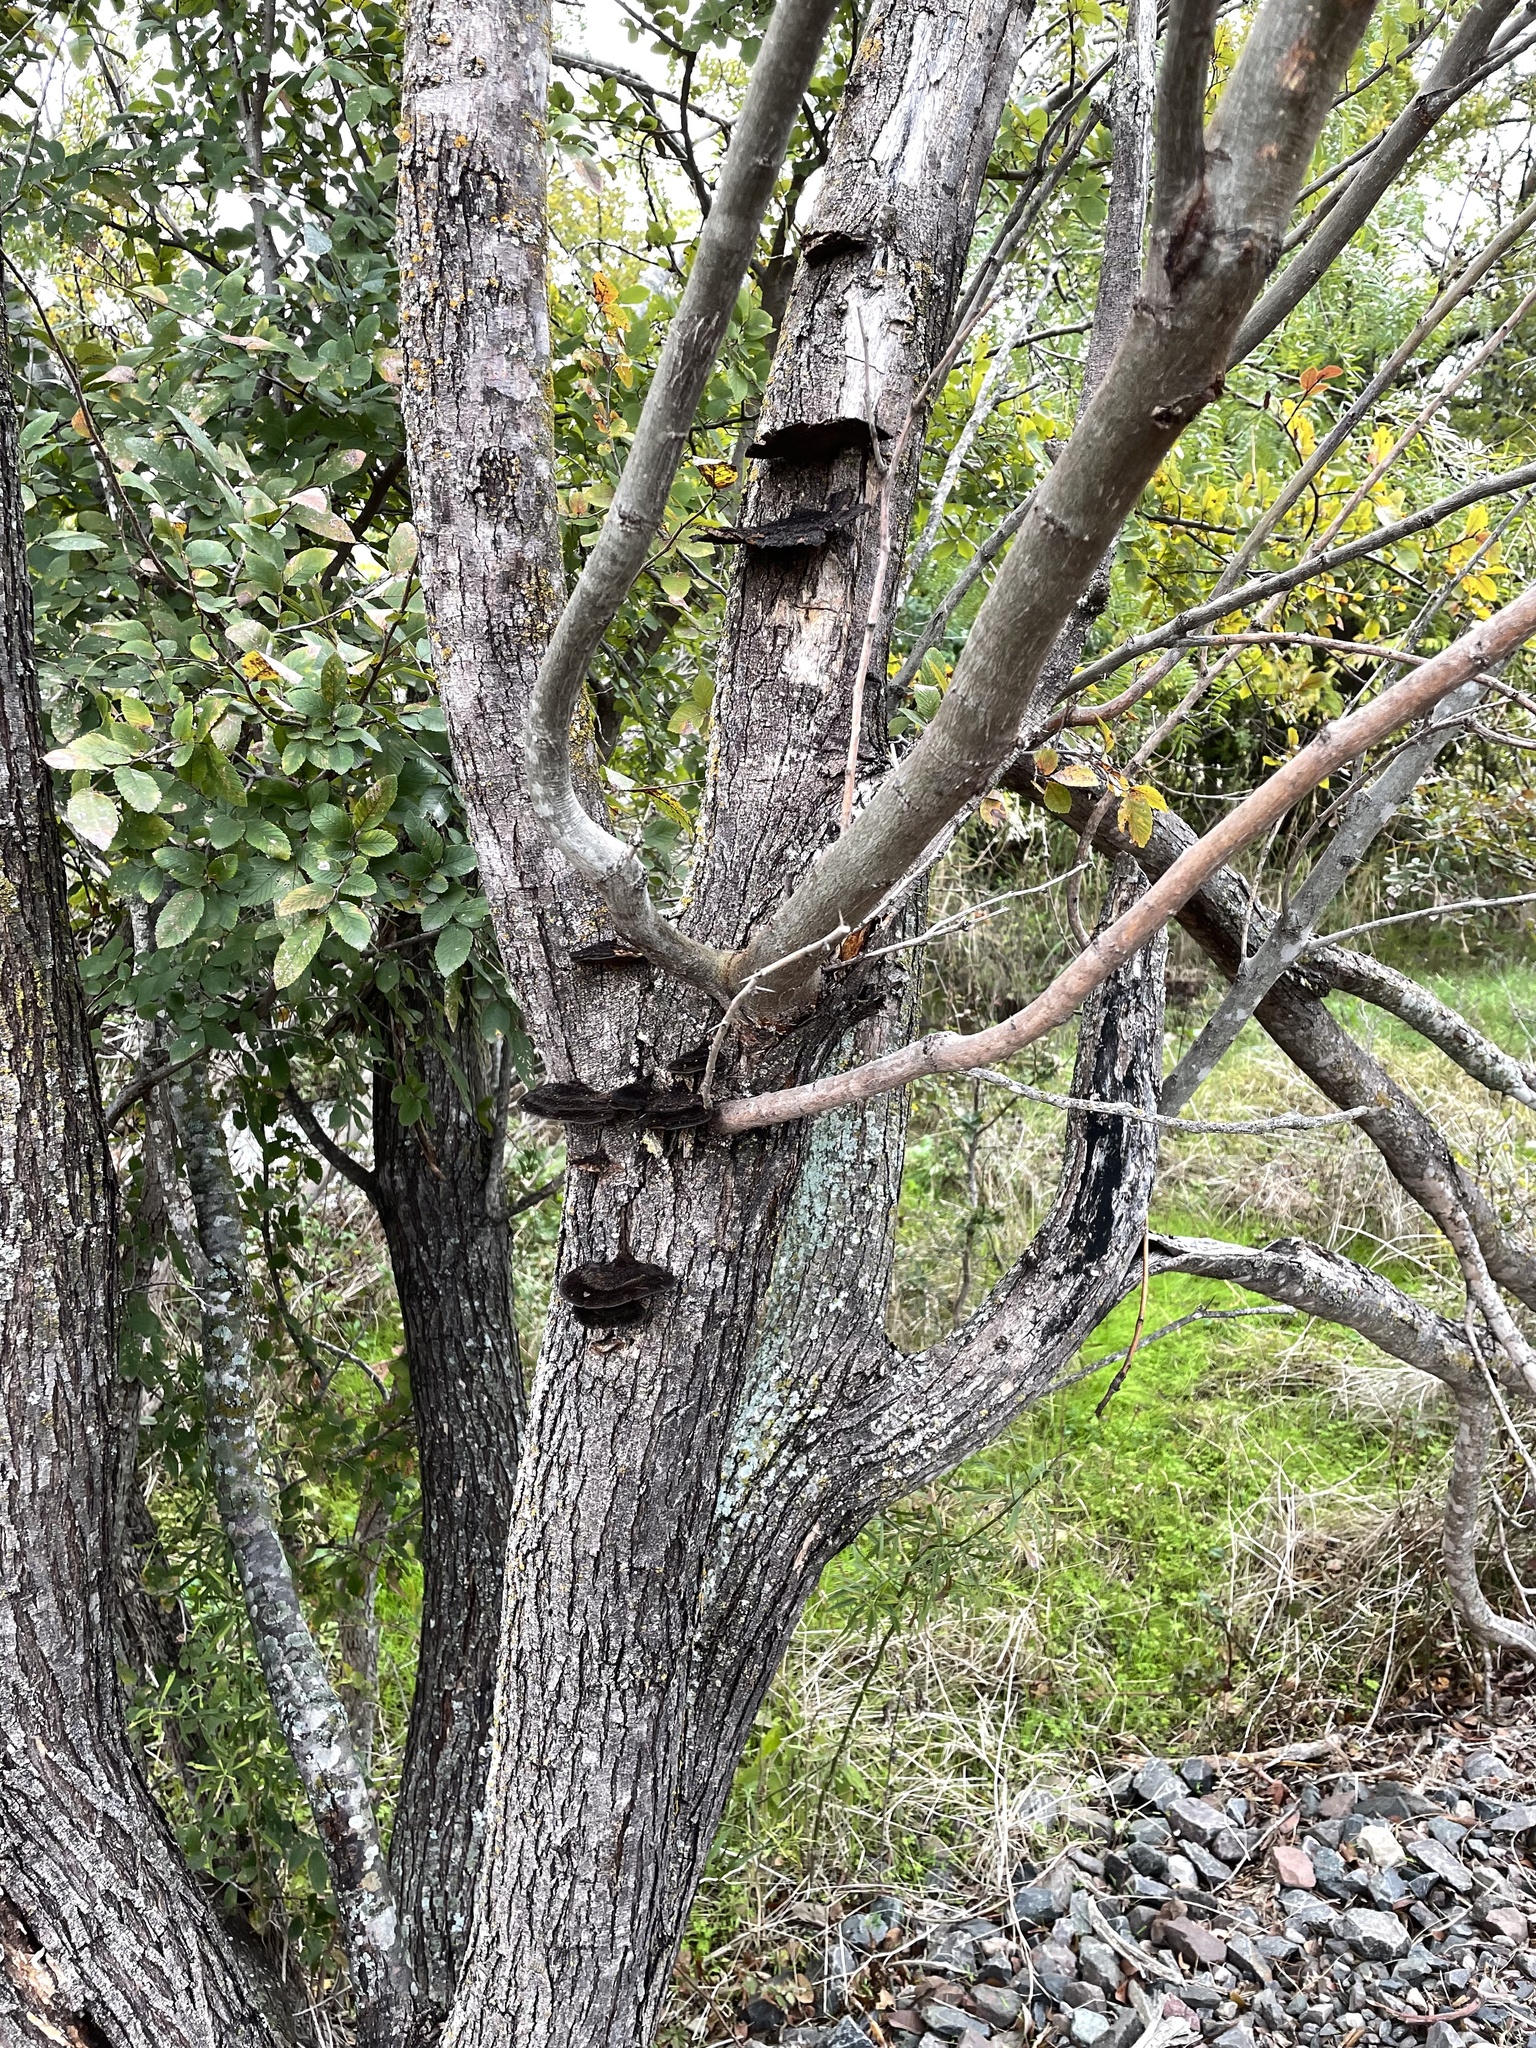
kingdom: Fungi
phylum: Basidiomycota
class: Agaricomycetes
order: Polyporales
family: Cerrenaceae
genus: Cerrena
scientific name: Cerrena hydnoides
